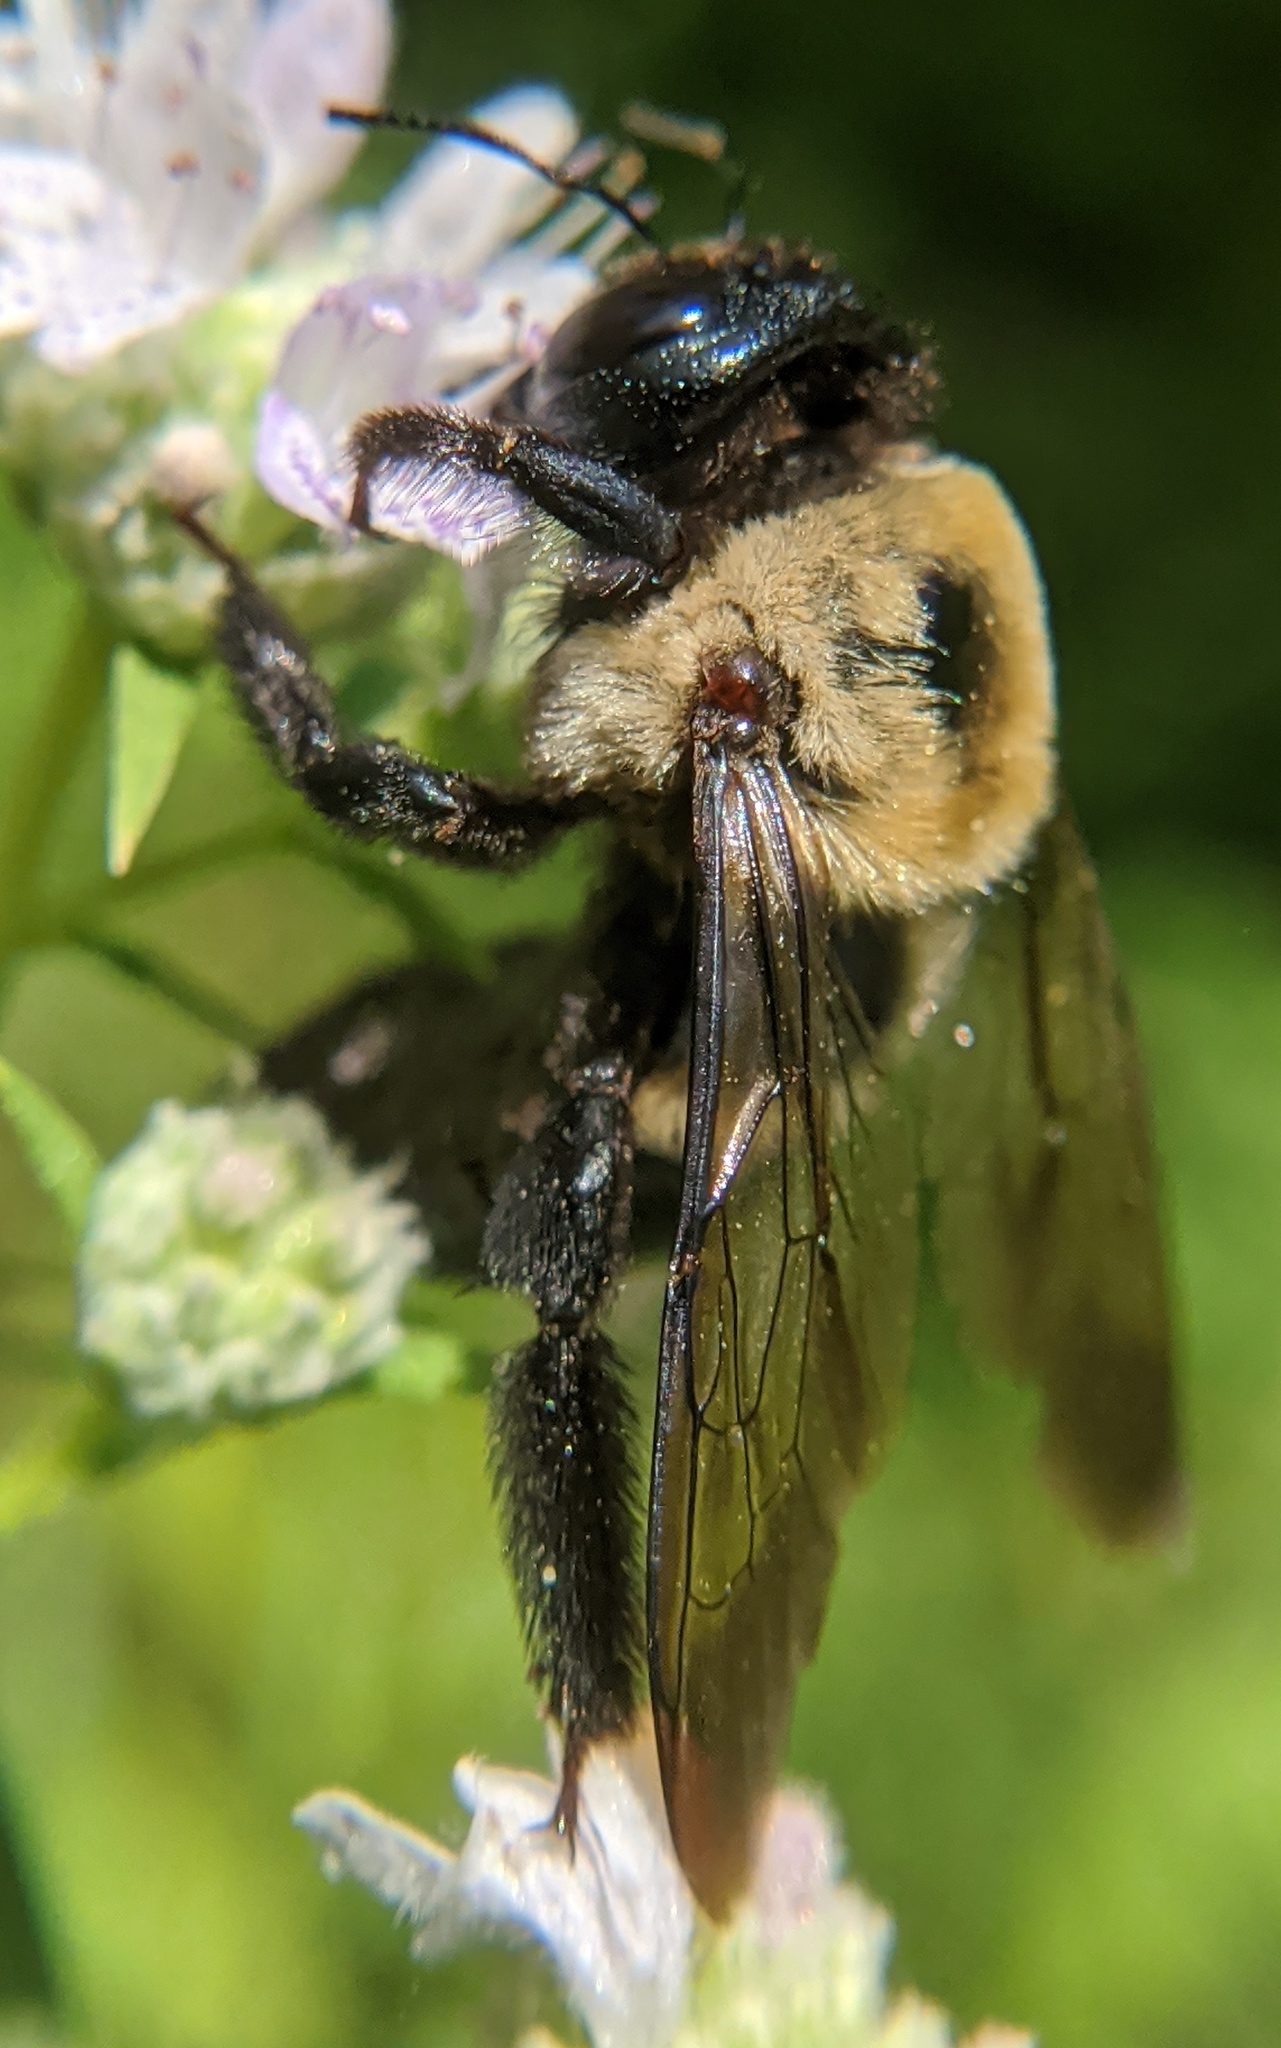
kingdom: Animalia
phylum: Arthropoda
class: Insecta
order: Hymenoptera
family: Apidae
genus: Xylocopa
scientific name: Xylocopa virginica
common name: Carpenter bee
